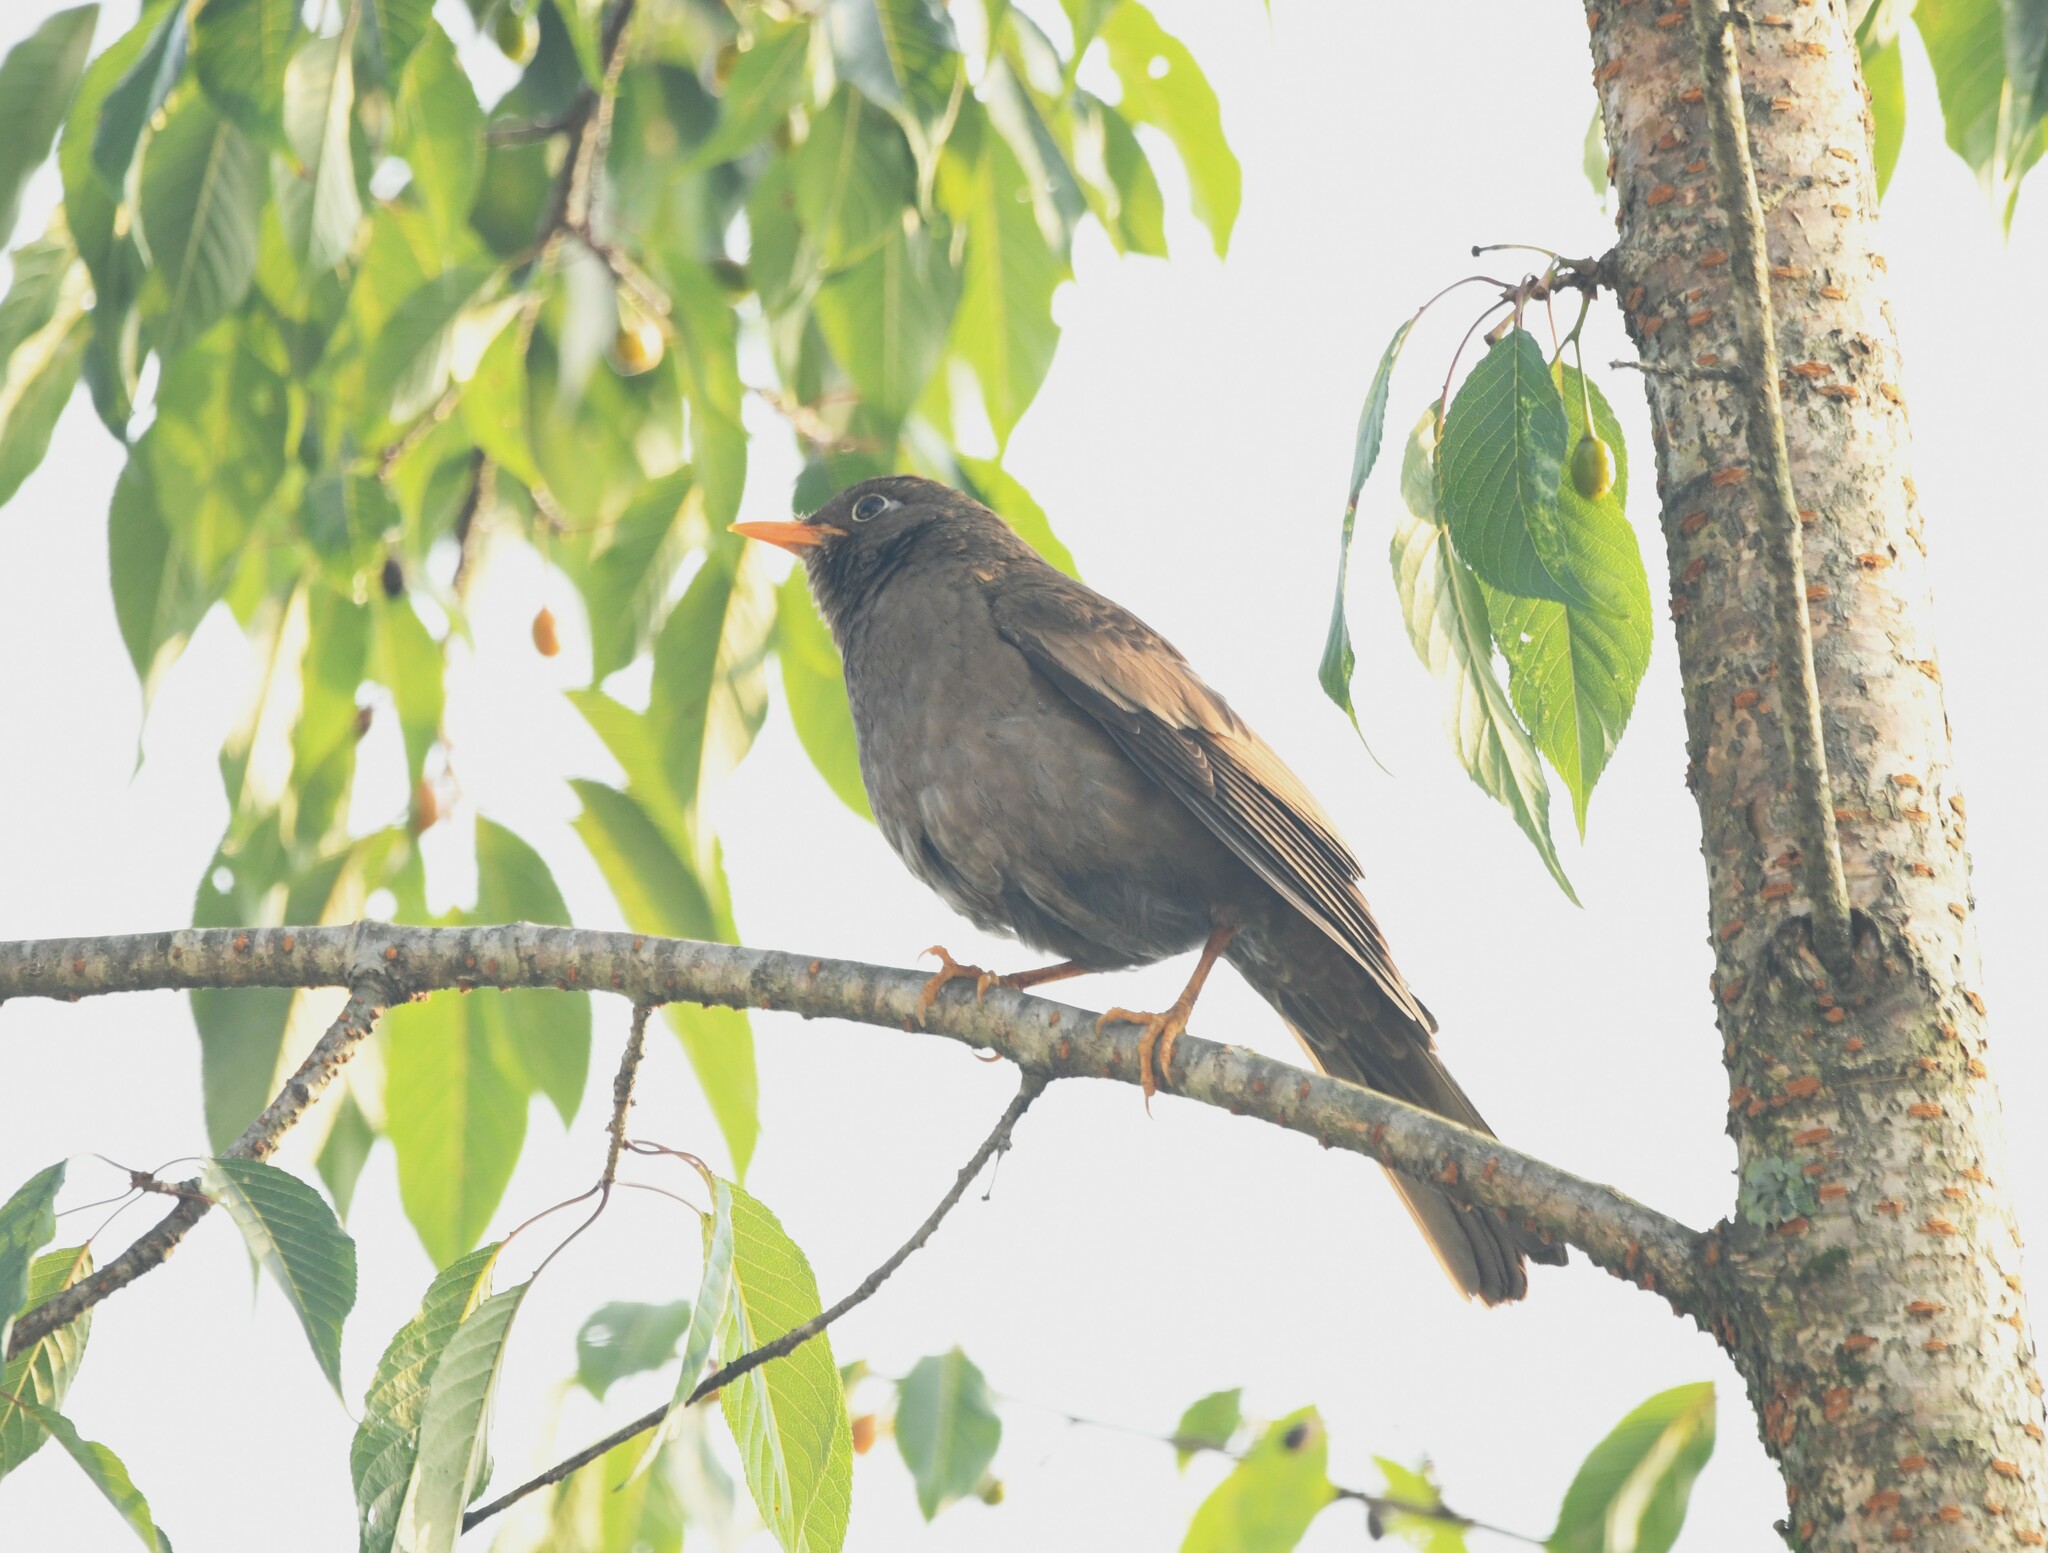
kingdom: Animalia
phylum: Chordata
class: Aves
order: Passeriformes
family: Turdidae
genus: Turdus
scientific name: Turdus boulboul
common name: Grey-winged blackbird
